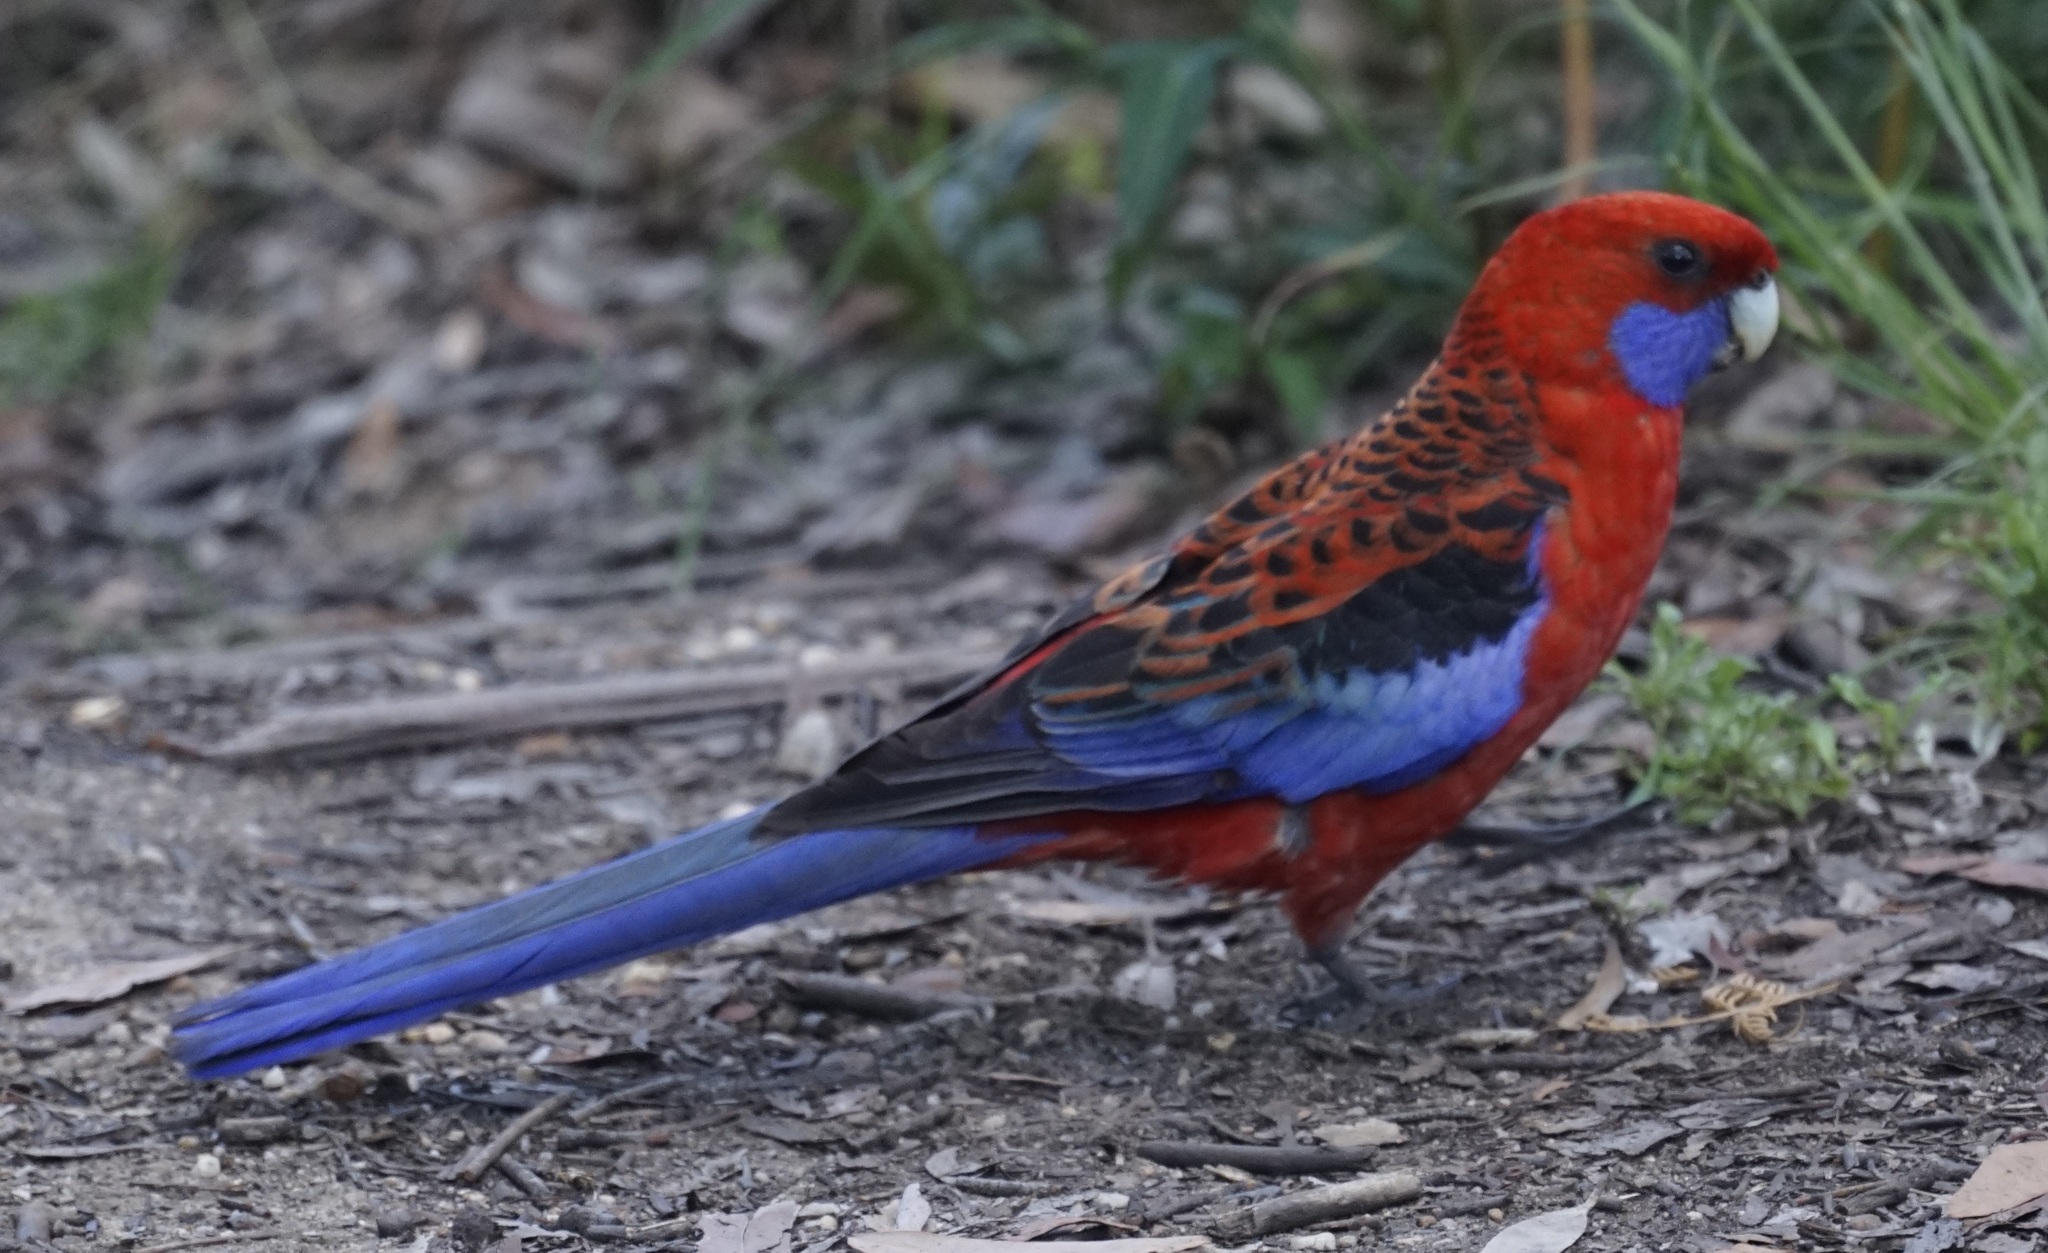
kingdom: Animalia
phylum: Chordata
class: Aves
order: Psittaciformes
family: Psittacidae
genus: Platycercus
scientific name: Platycercus elegans
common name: Crimson rosella
